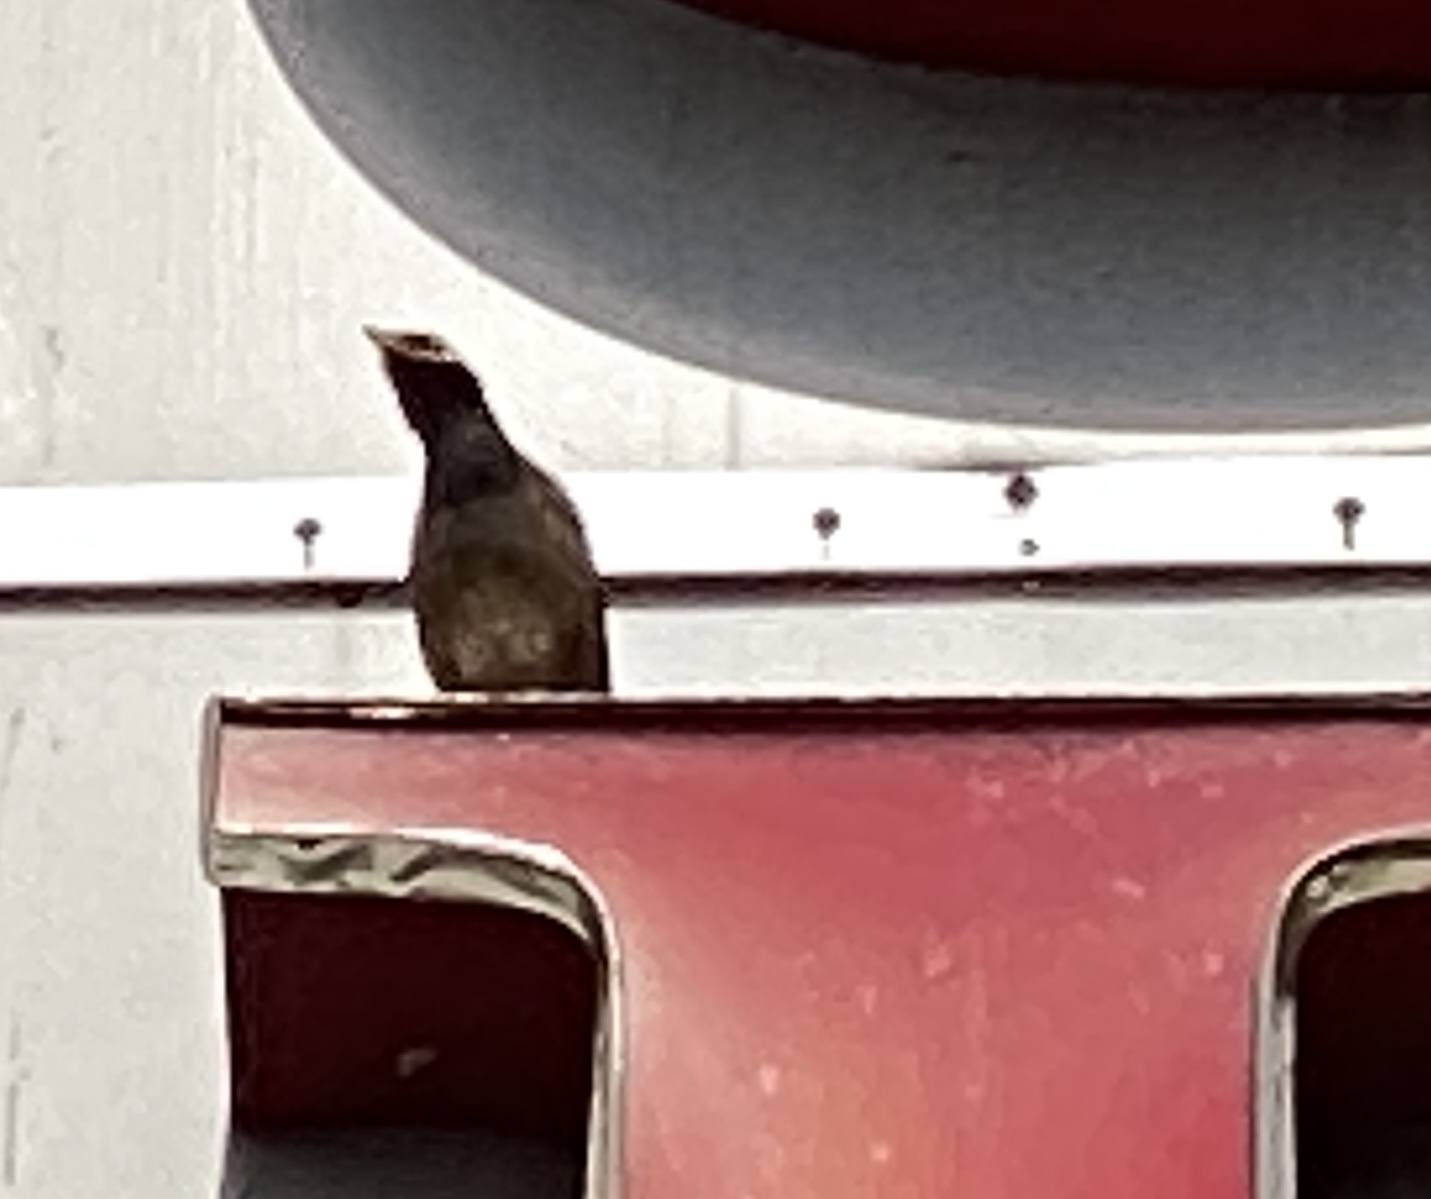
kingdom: Animalia
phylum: Chordata
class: Aves
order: Passeriformes
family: Sturnidae
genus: Acridotheres
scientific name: Acridotheres tristis
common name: Common myna
